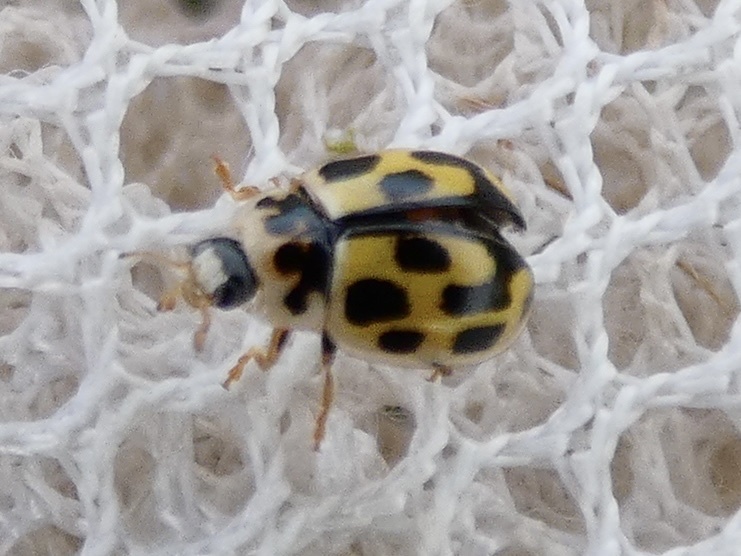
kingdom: Animalia
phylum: Arthropoda
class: Insecta
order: Coleoptera
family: Coccinellidae
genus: Propylaea
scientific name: Propylaea quatuordecimpunctata
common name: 14-spotted ladybird beetle
